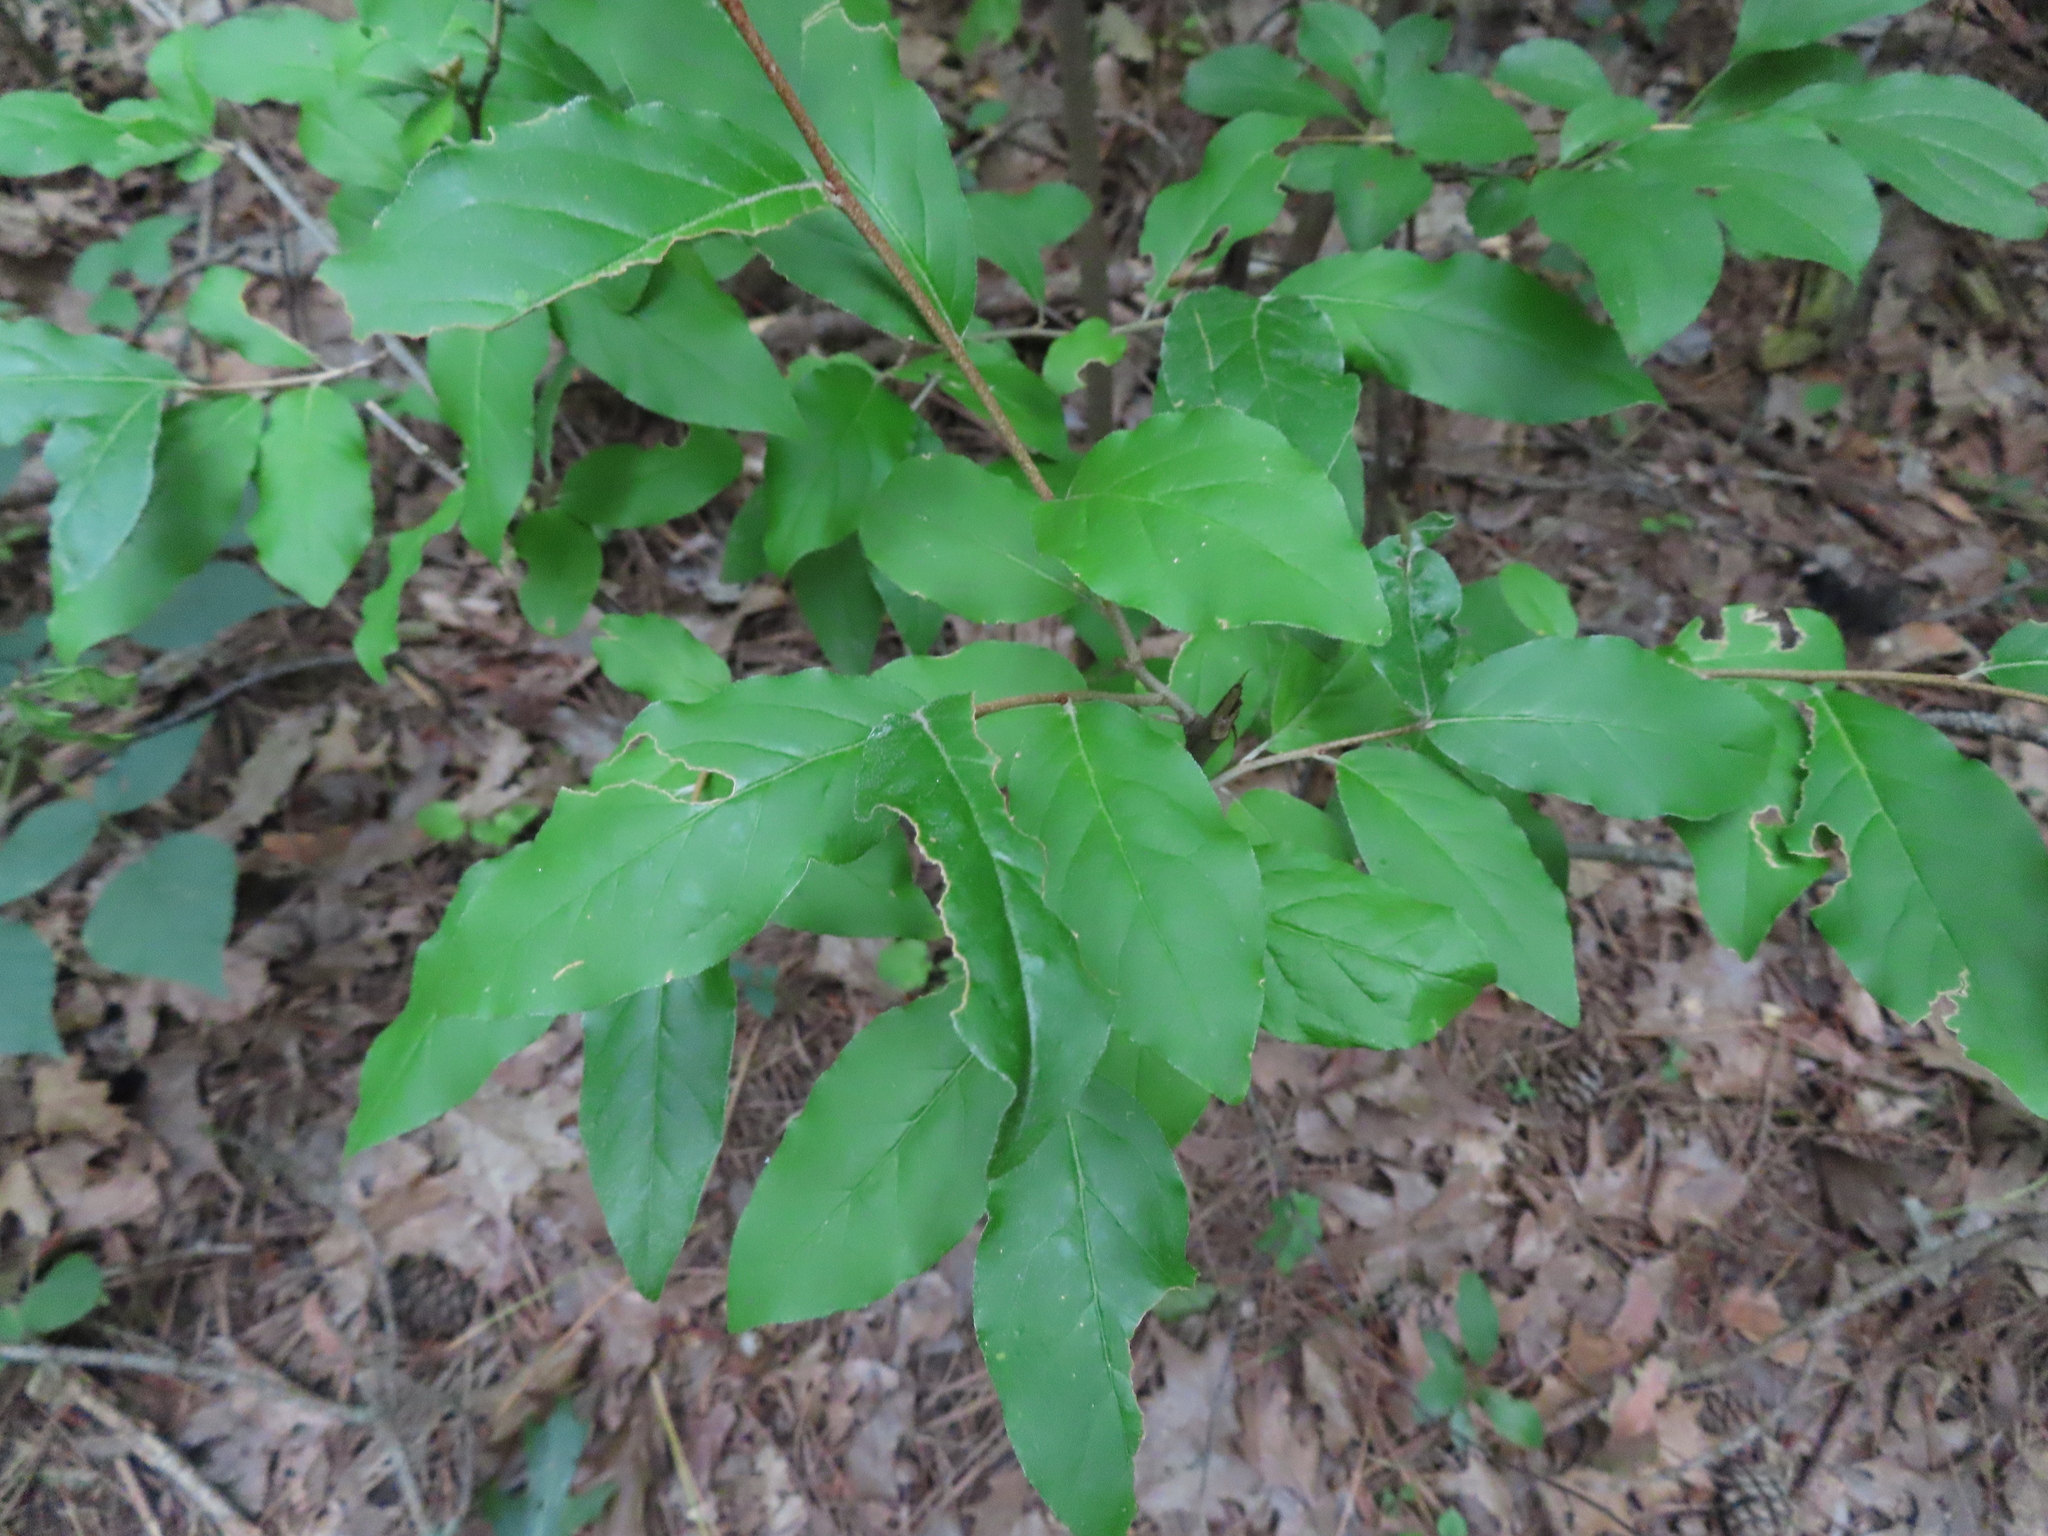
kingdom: Plantae
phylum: Tracheophyta
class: Magnoliopsida
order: Rosales
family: Elaeagnaceae
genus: Elaeagnus
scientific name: Elaeagnus umbellata
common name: Autumn olive
